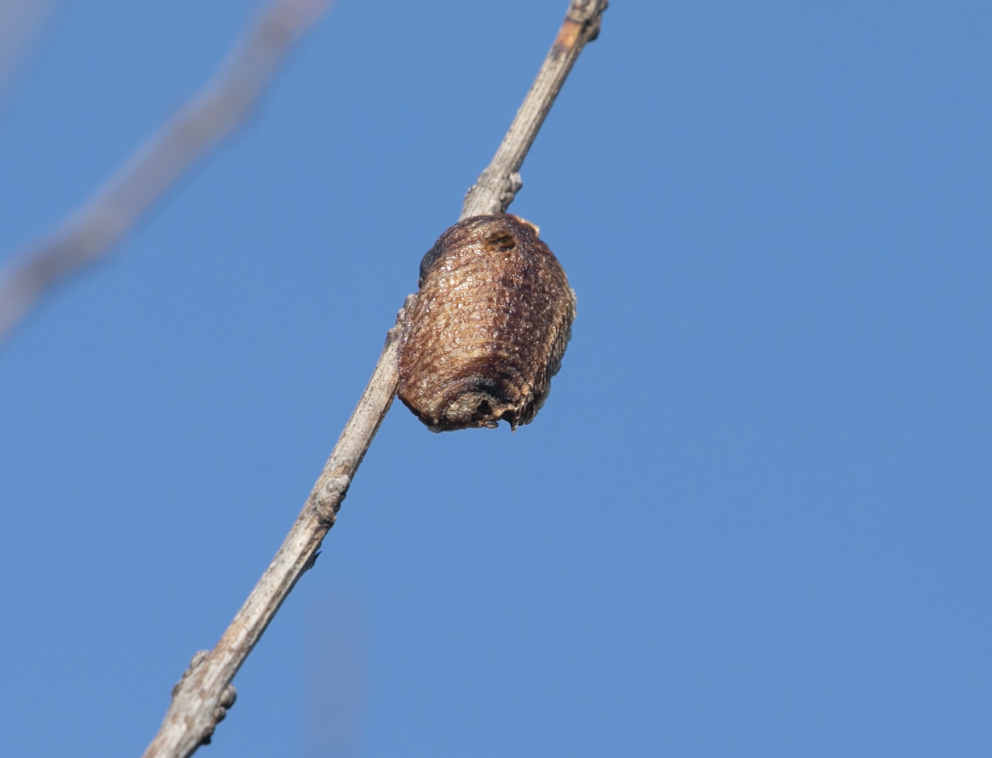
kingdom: Animalia
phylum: Arthropoda
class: Insecta
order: Mantodea
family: Mantidae
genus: Hierodula
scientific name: Hierodula transcaucasica
